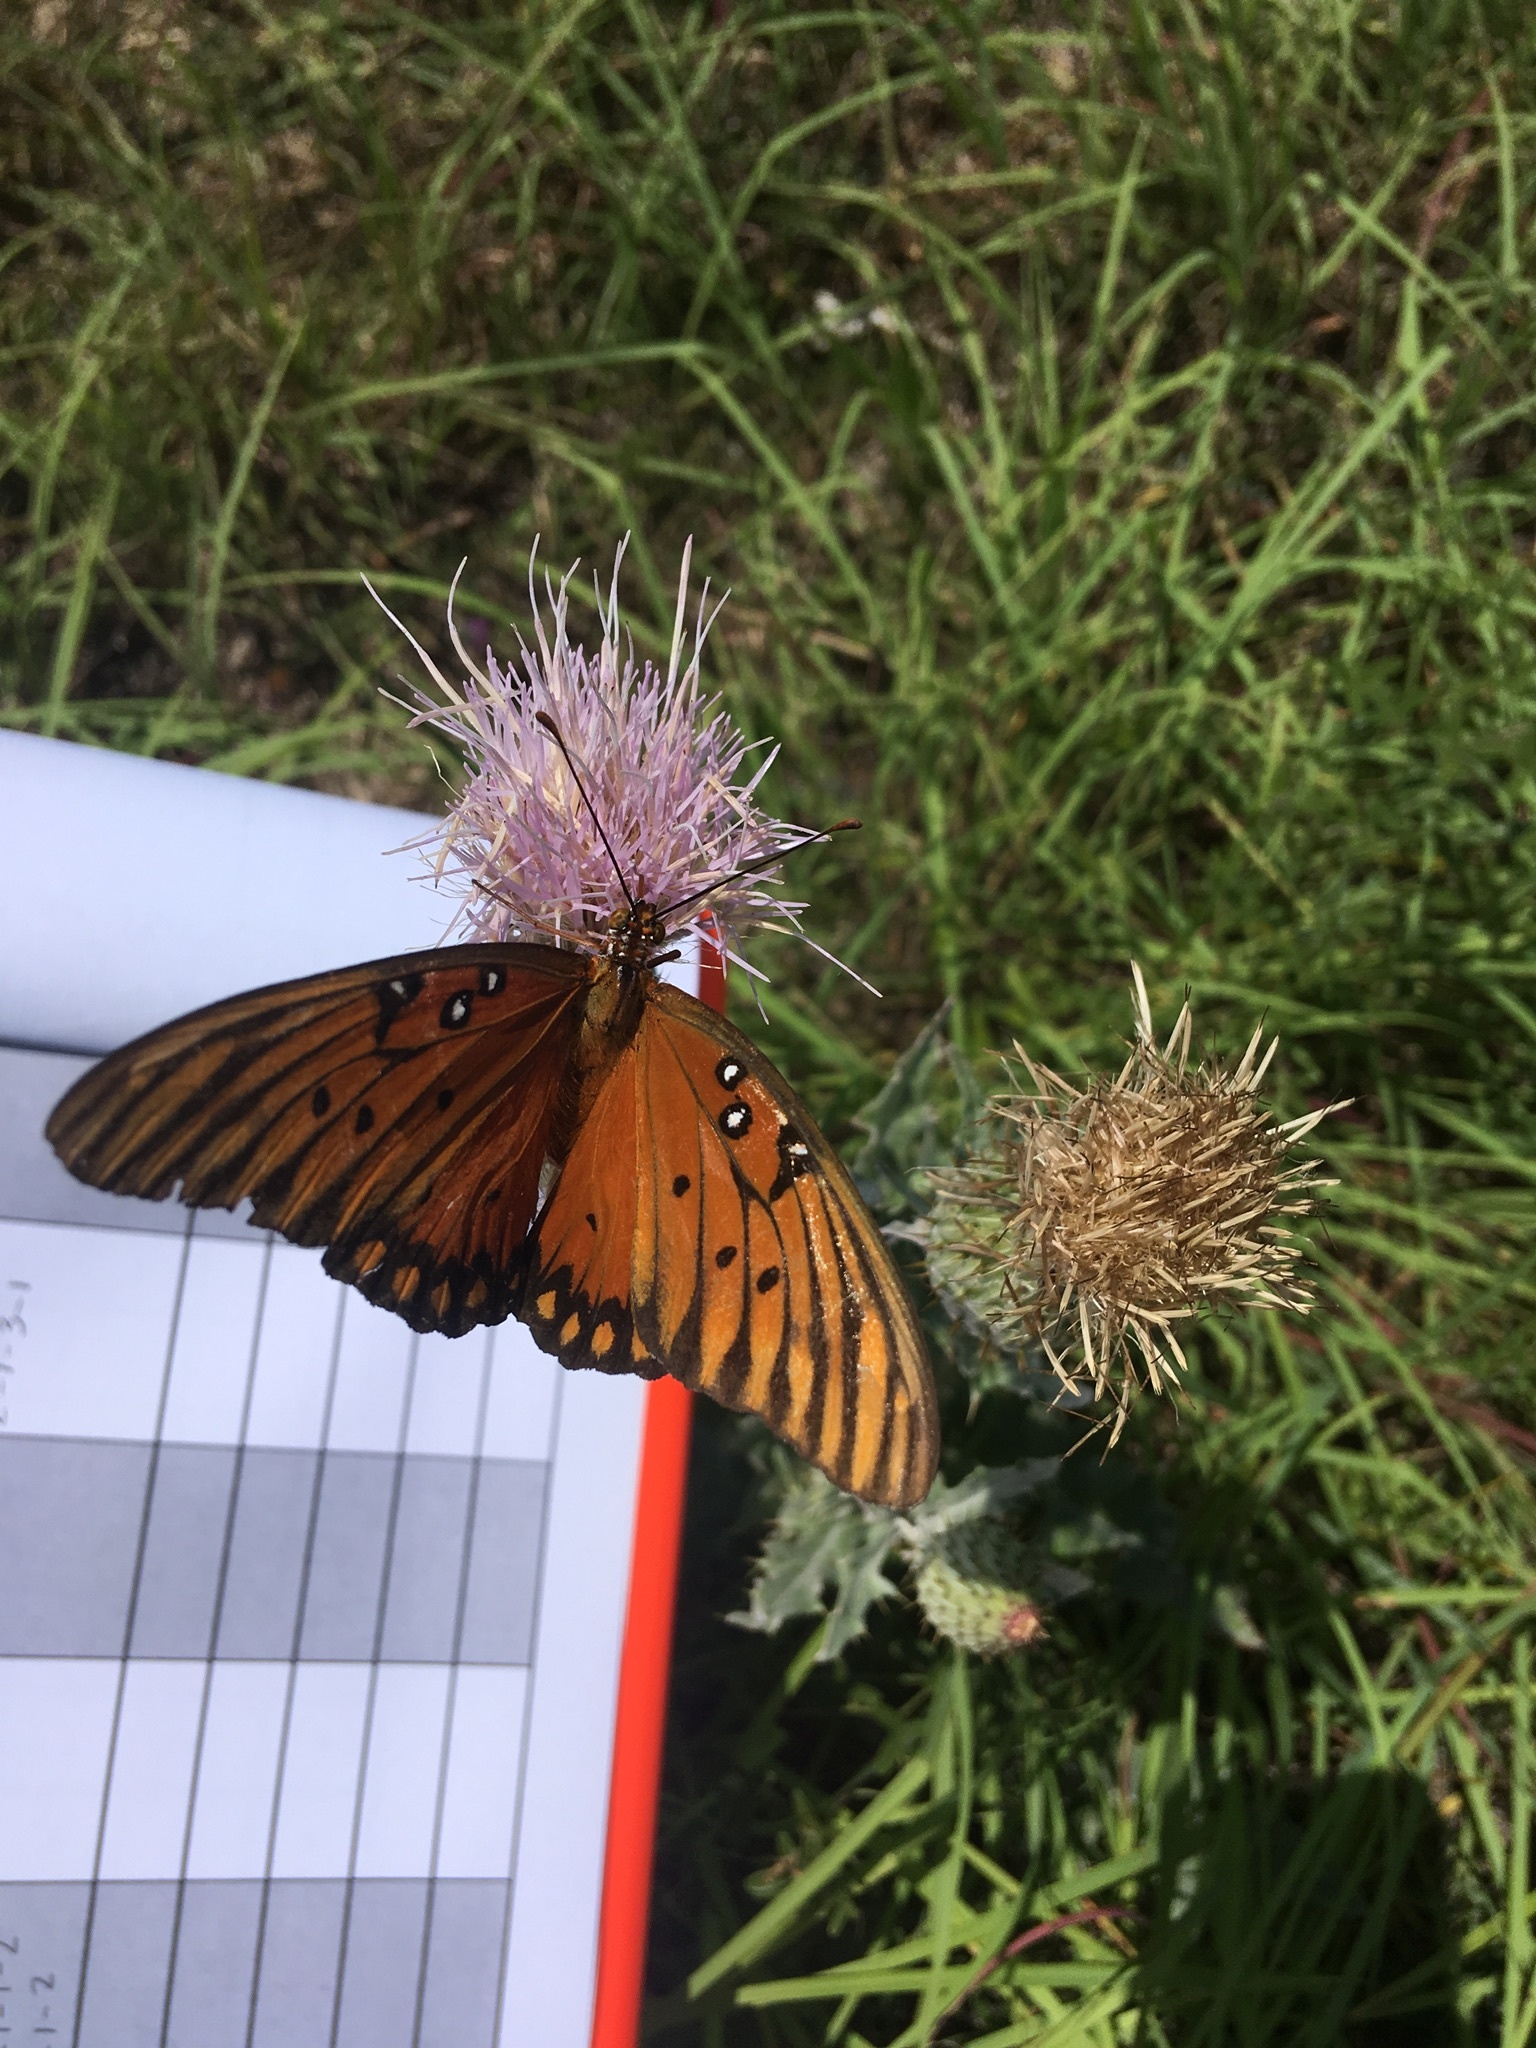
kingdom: Animalia
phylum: Arthropoda
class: Insecta
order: Lepidoptera
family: Nymphalidae
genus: Dione
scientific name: Dione vanillae
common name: Gulf fritillary
